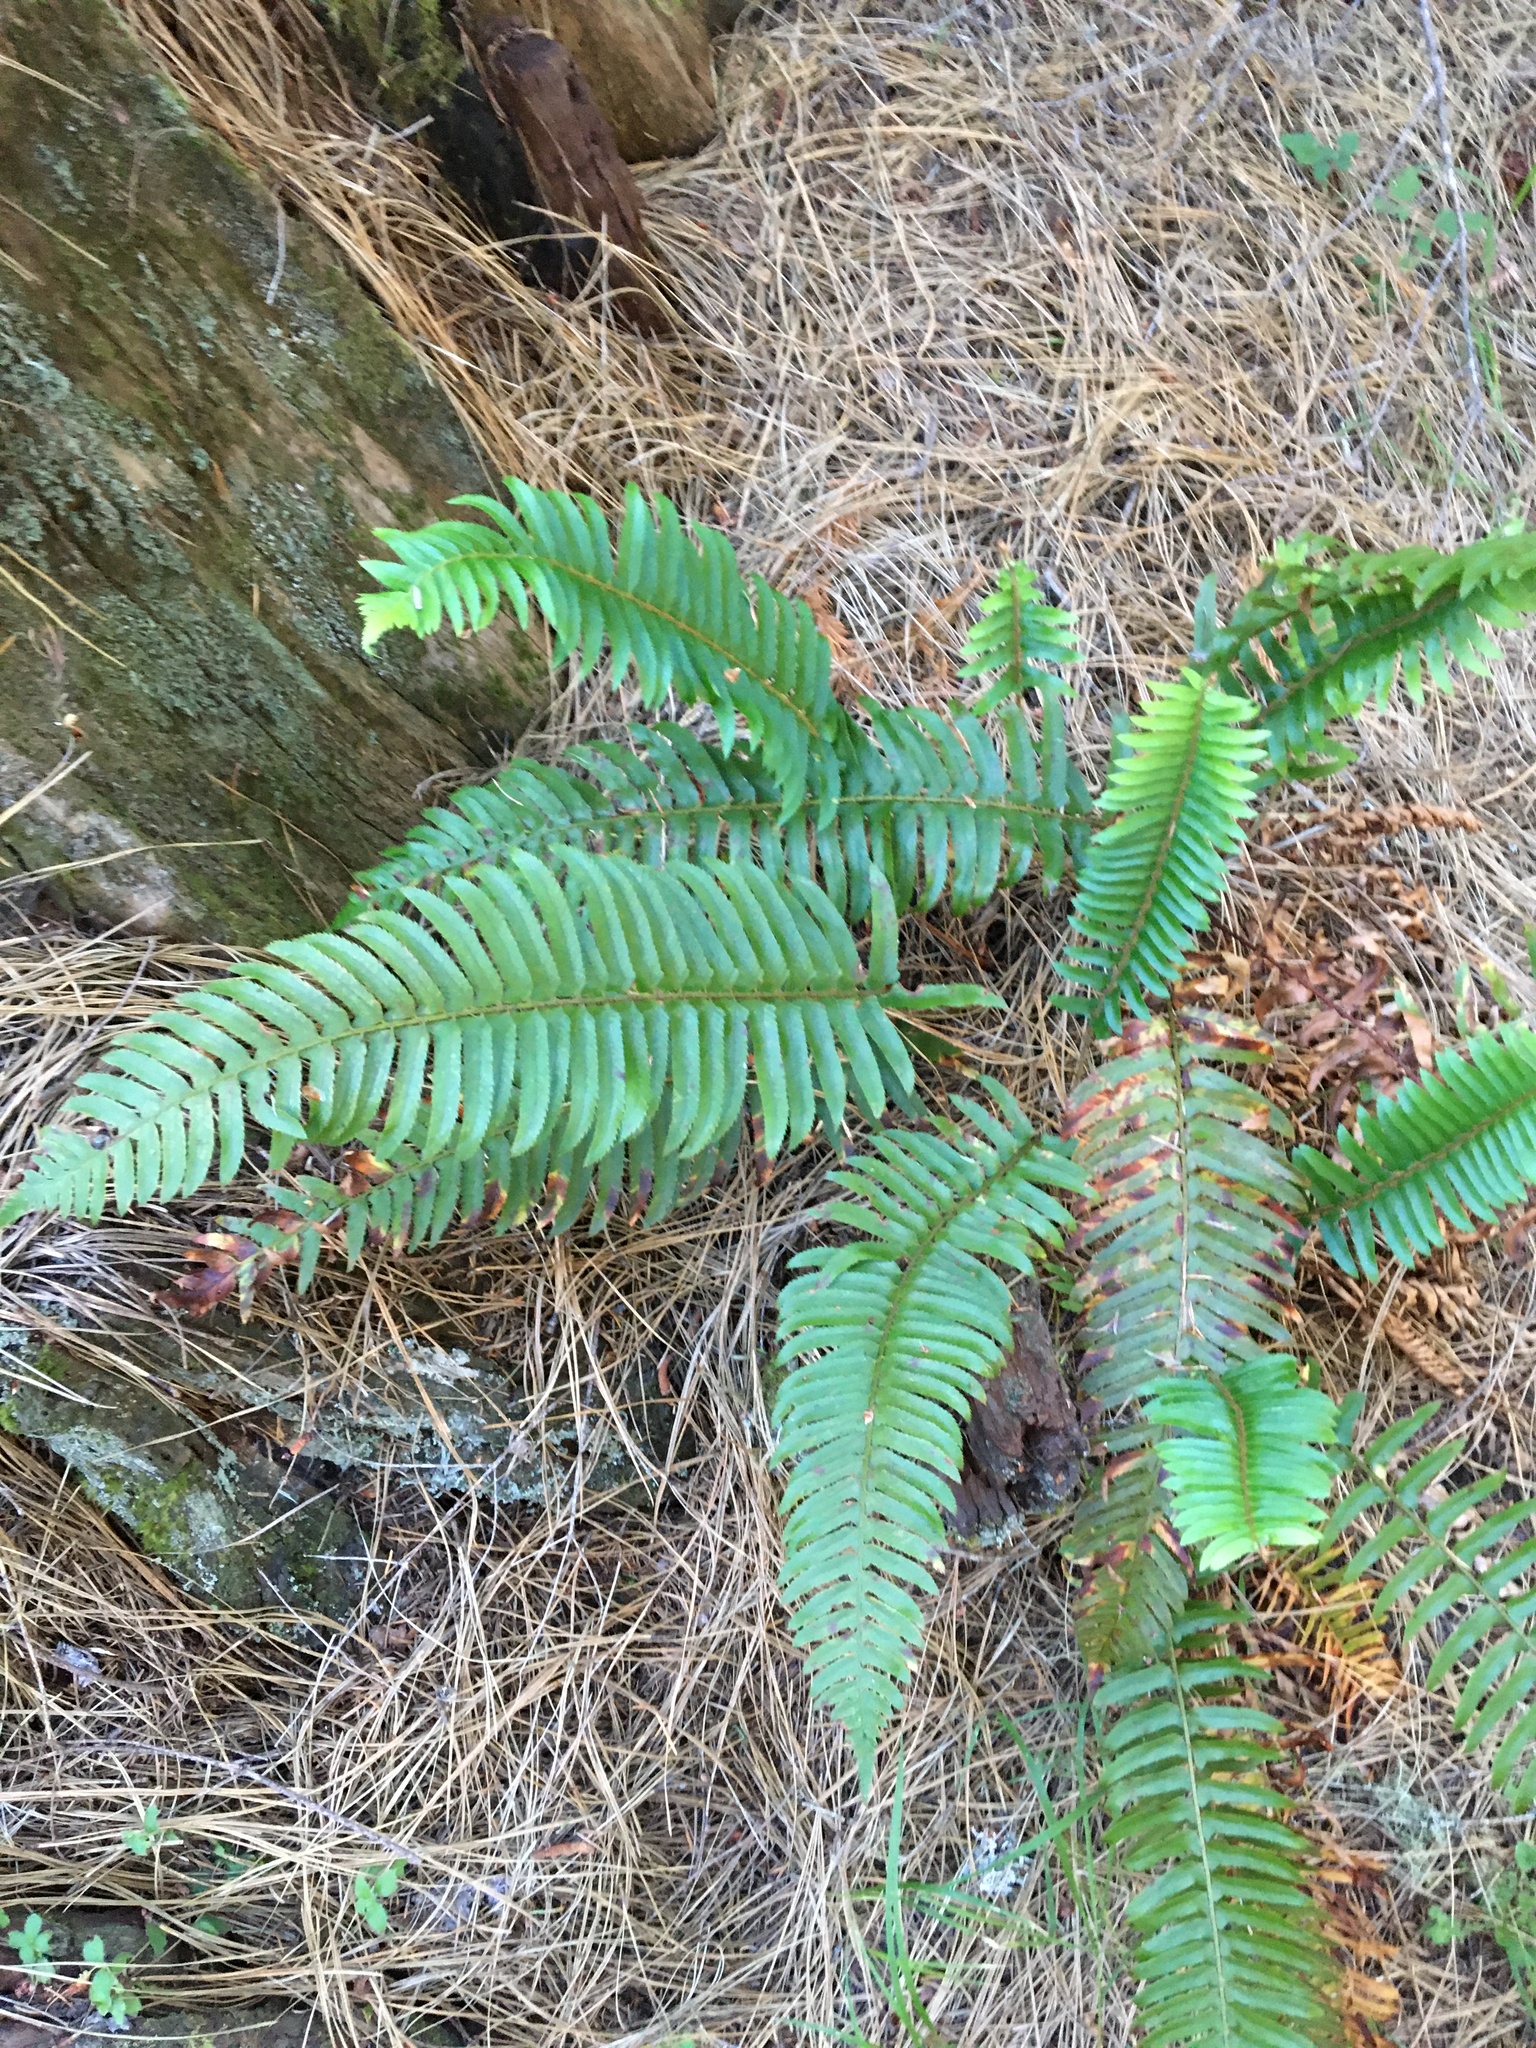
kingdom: Plantae
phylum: Tracheophyta
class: Polypodiopsida
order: Polypodiales
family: Dryopteridaceae
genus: Polystichum
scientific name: Polystichum munitum
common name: Western sword-fern
